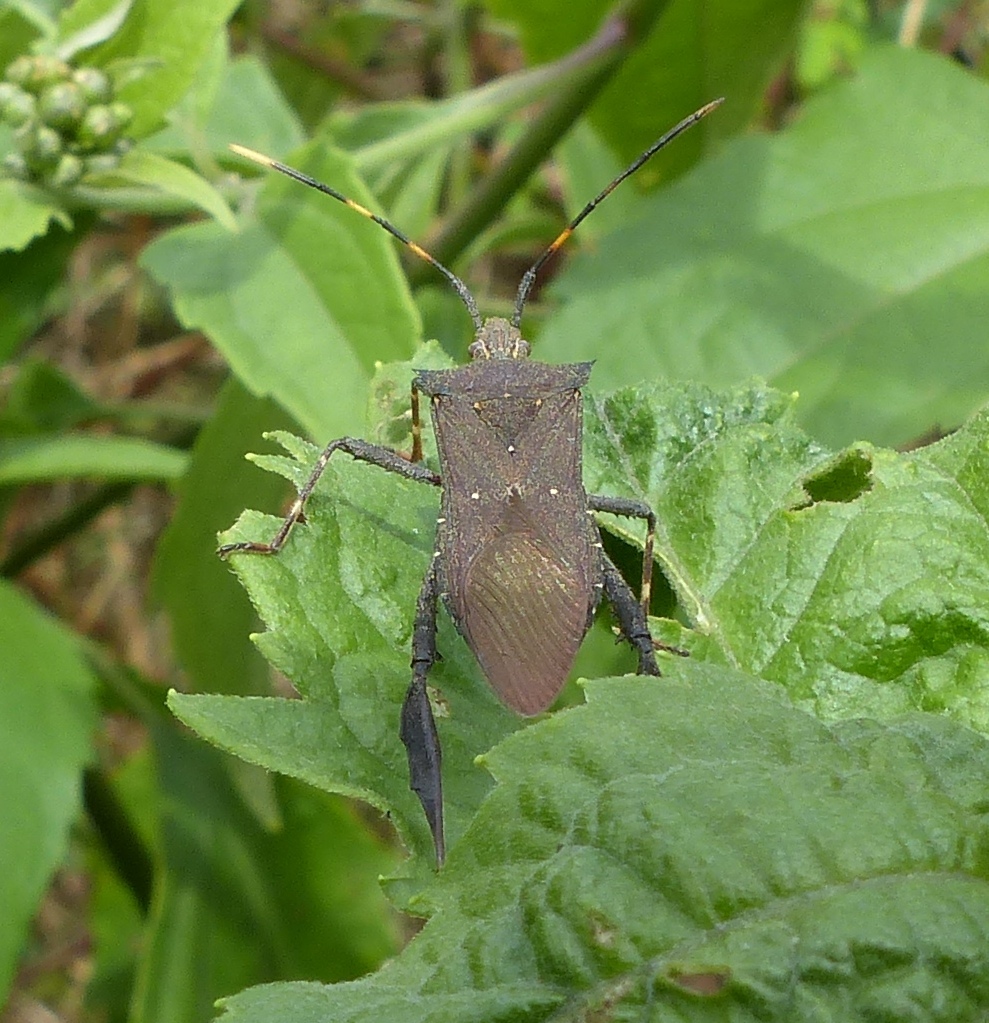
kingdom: Animalia
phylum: Arthropoda
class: Insecta
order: Hemiptera
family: Coreidae
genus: Leptoglossus
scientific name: Leptoglossus gonagra
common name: Citron bug
